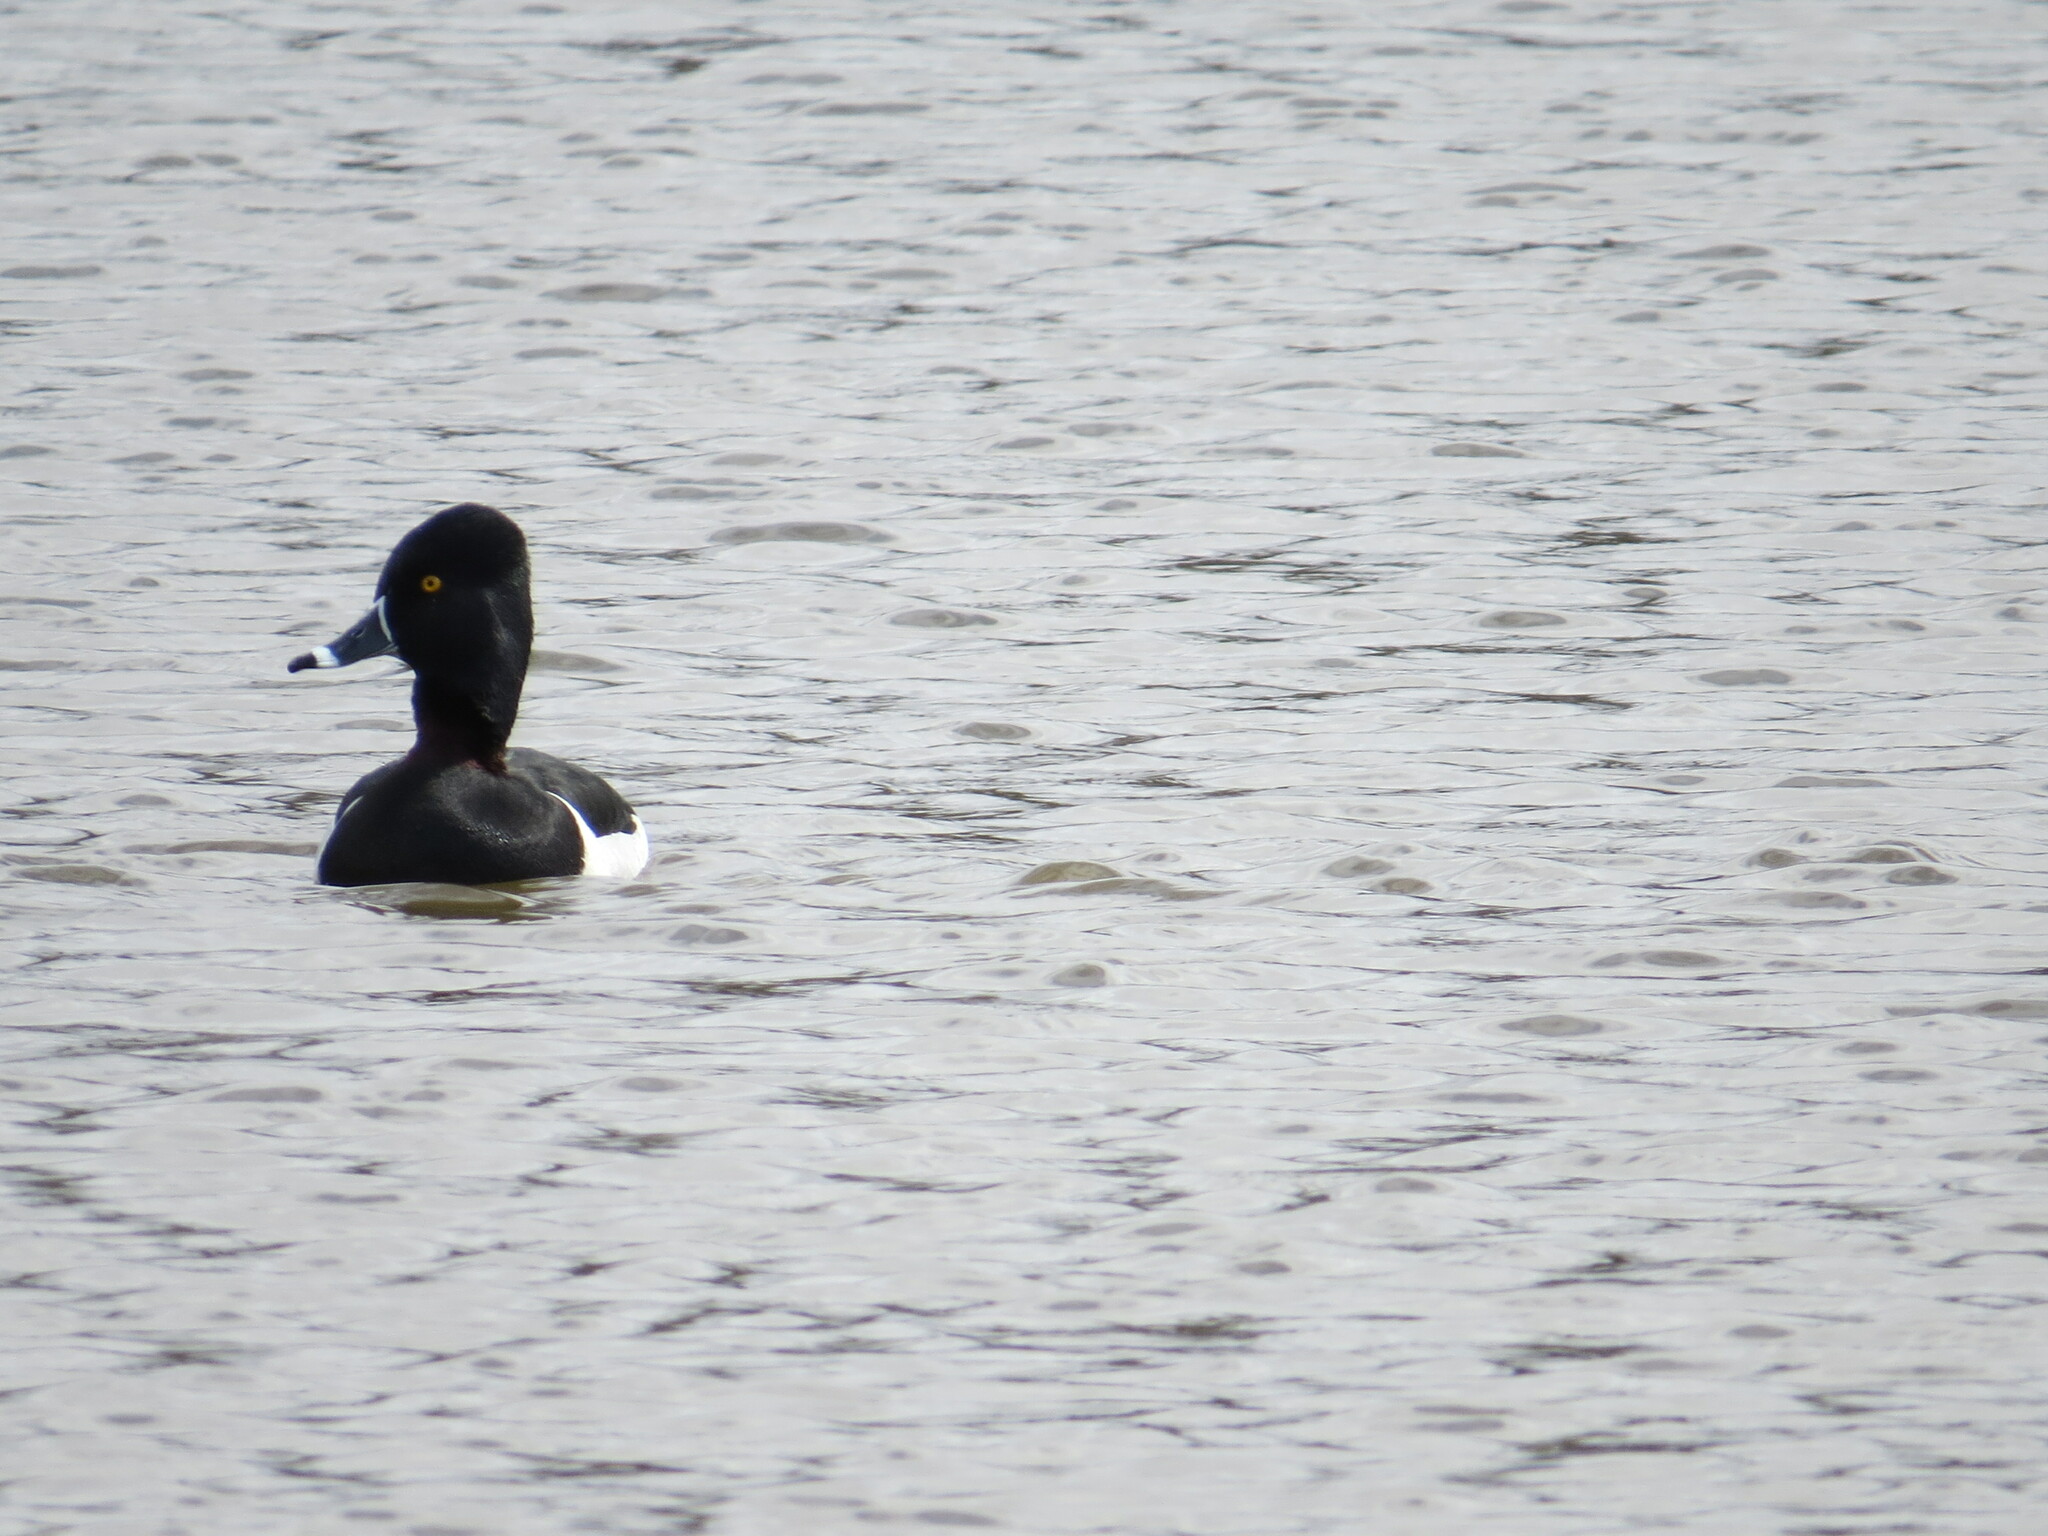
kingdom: Animalia
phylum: Chordata
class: Aves
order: Anseriformes
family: Anatidae
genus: Aythya
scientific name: Aythya collaris
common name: Ring-necked duck
